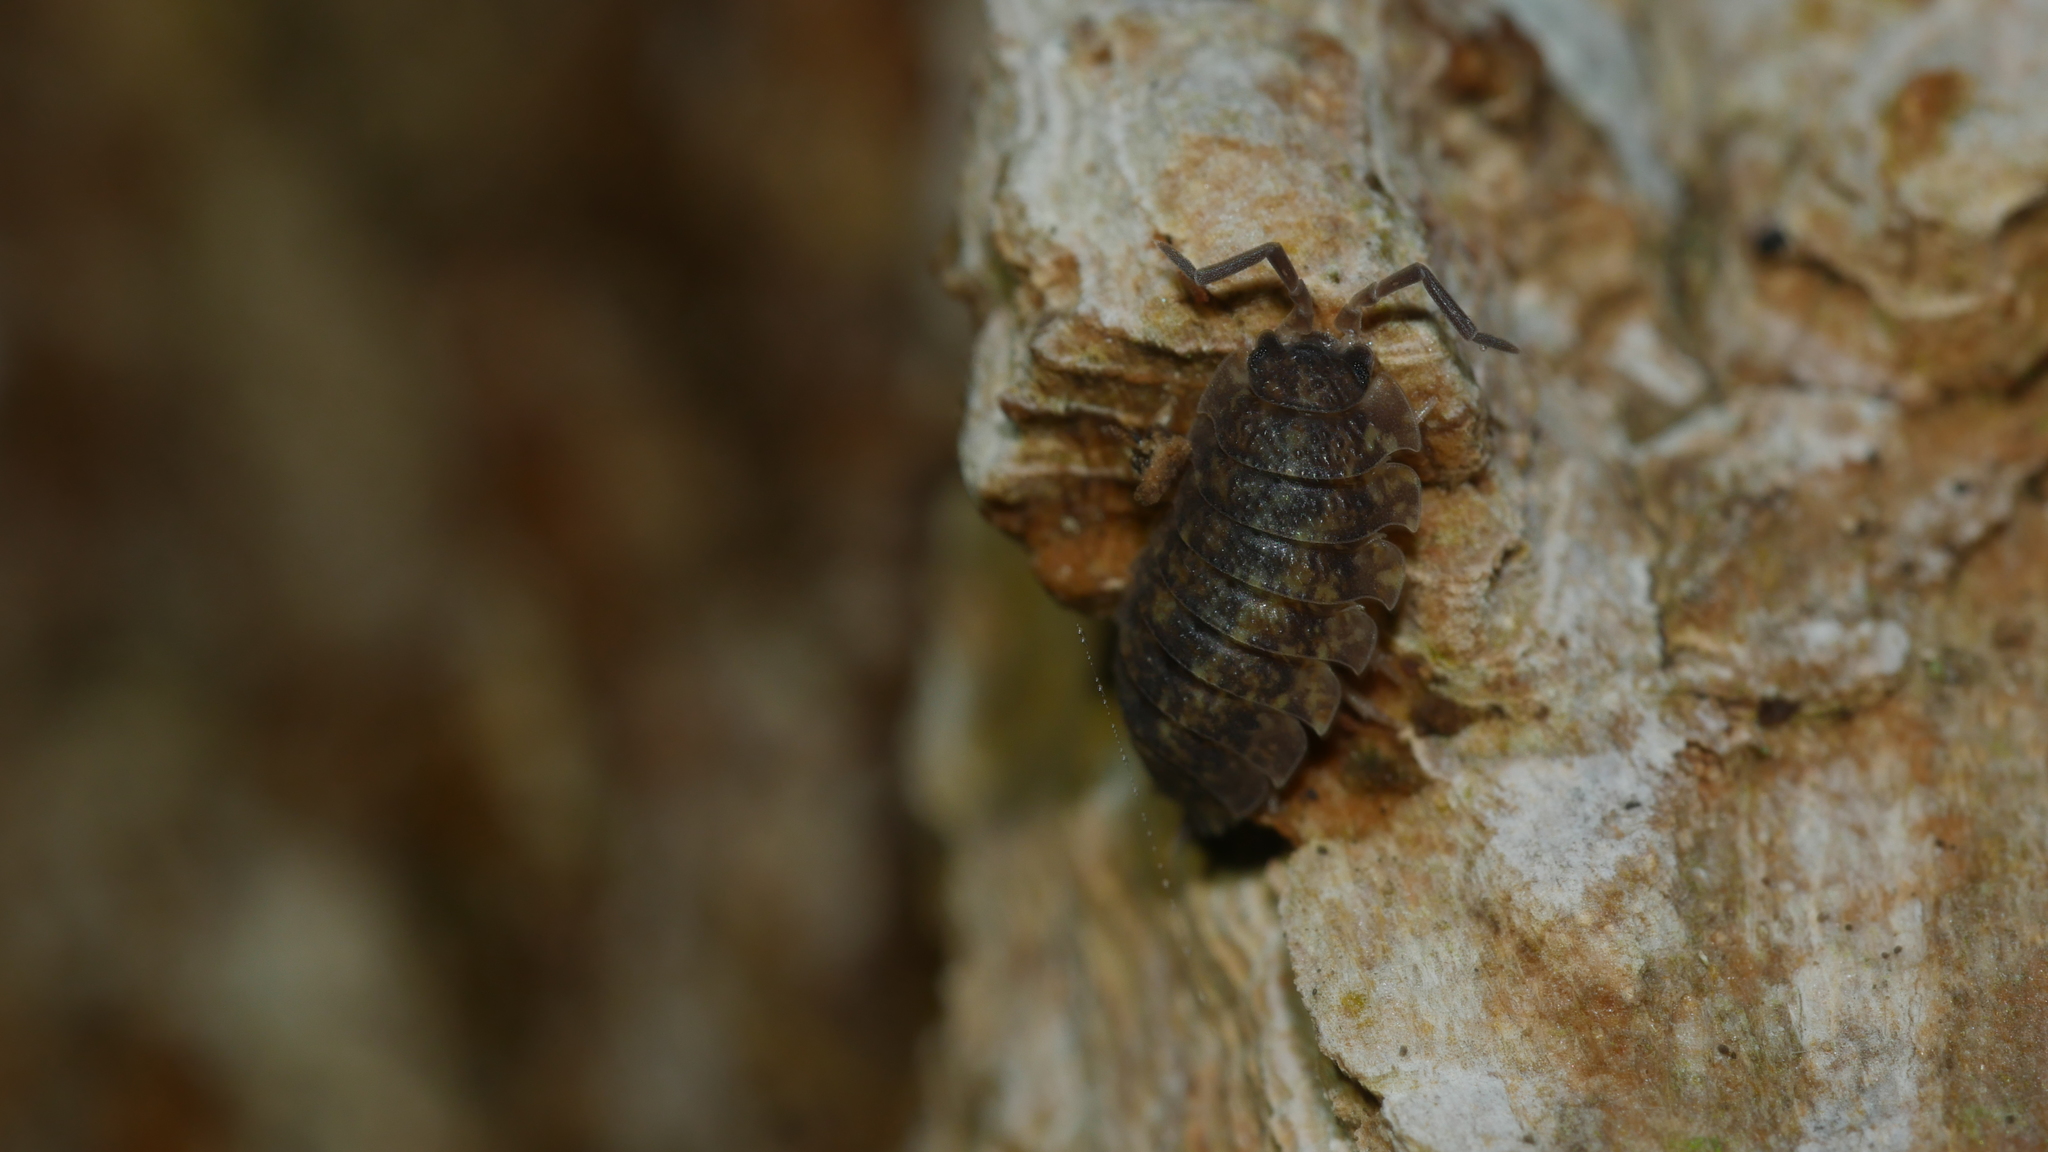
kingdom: Animalia
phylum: Arthropoda
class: Malacostraca
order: Isopoda
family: Porcellionidae
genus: Porcellio
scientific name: Porcellio scaber
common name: Common rough woodlouse
